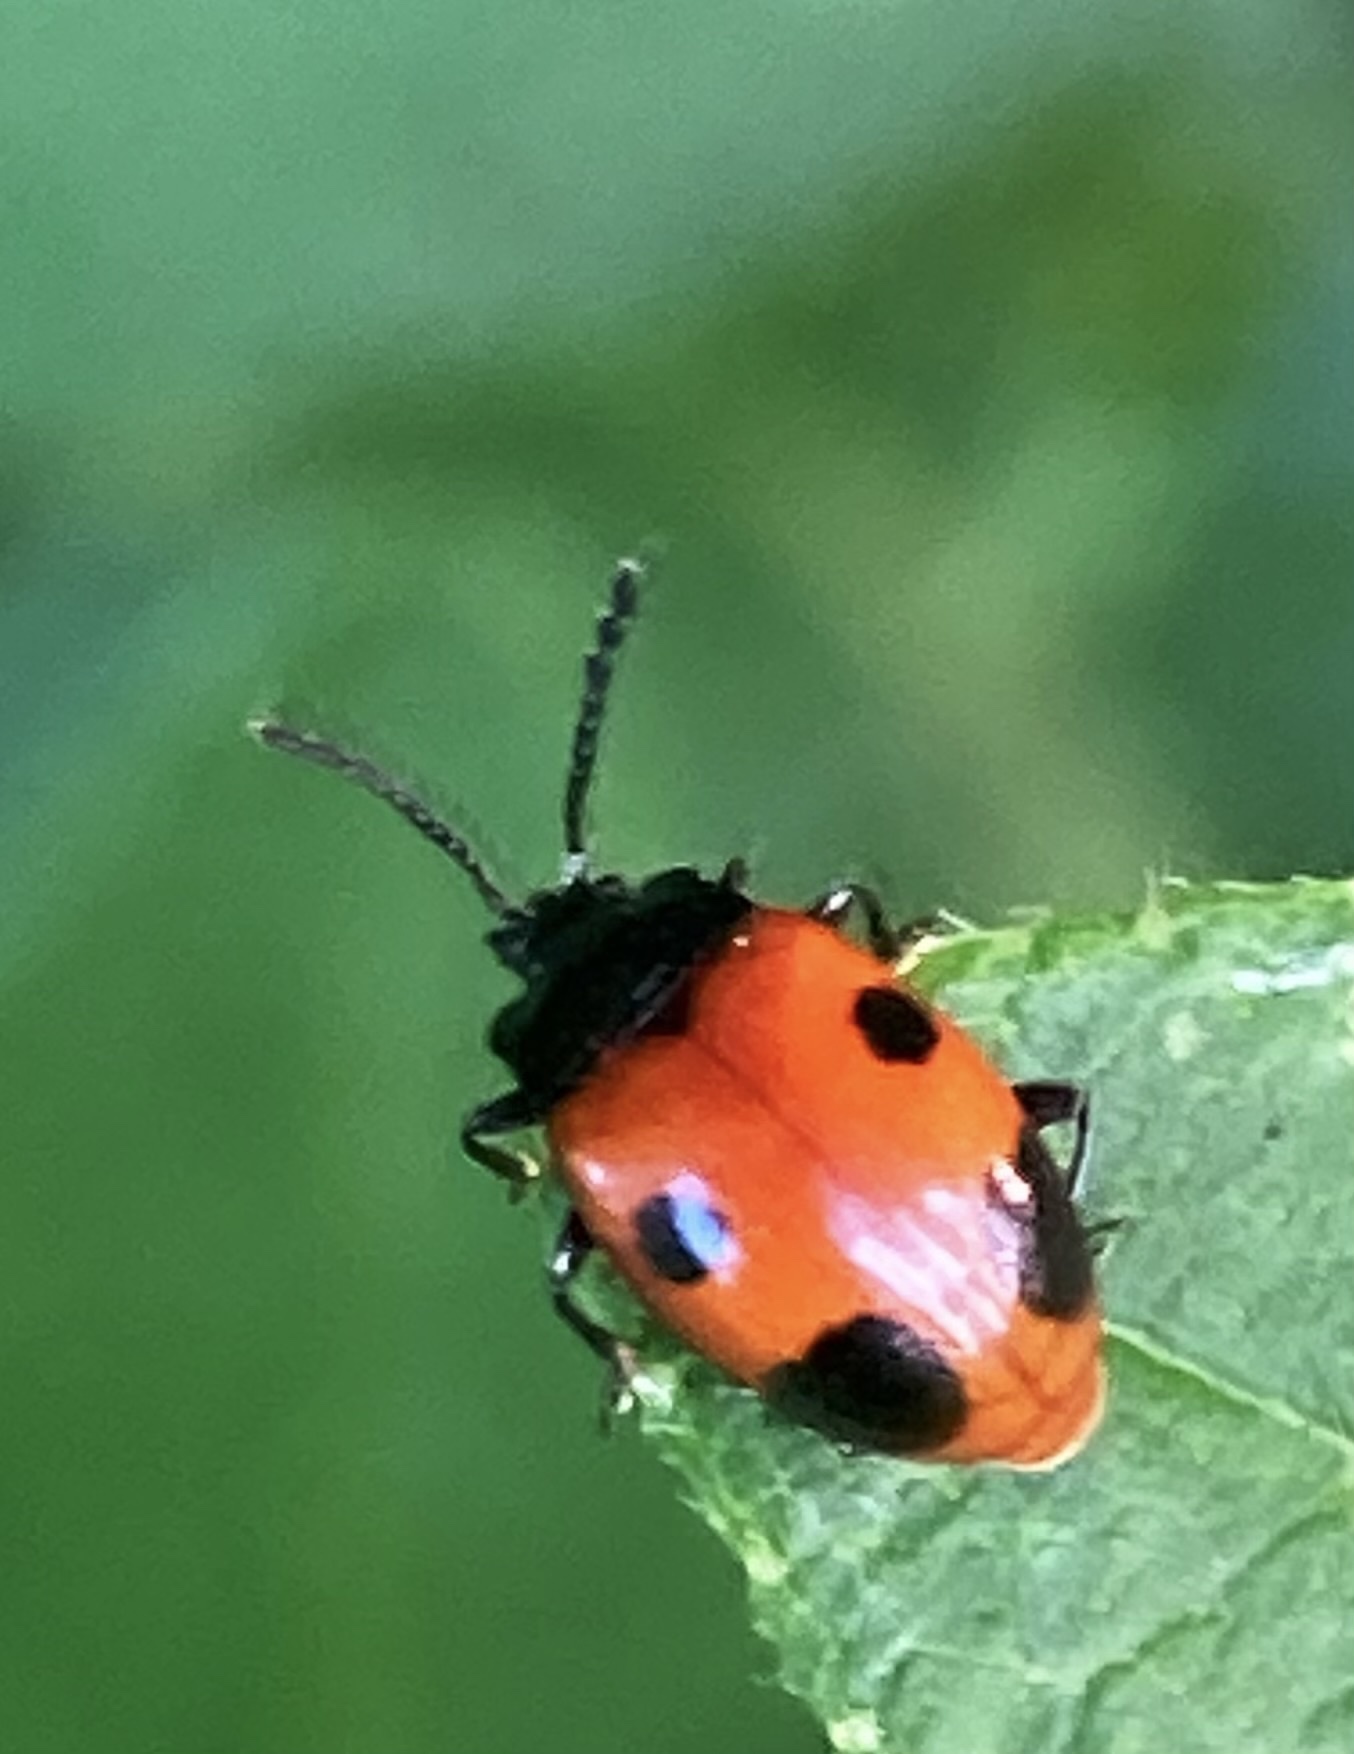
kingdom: Animalia
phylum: Arthropoda
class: Insecta
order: Coleoptera
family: Endomychidae
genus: Endomychus
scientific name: Endomychus biguttatus
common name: Handsome fungus beetle
